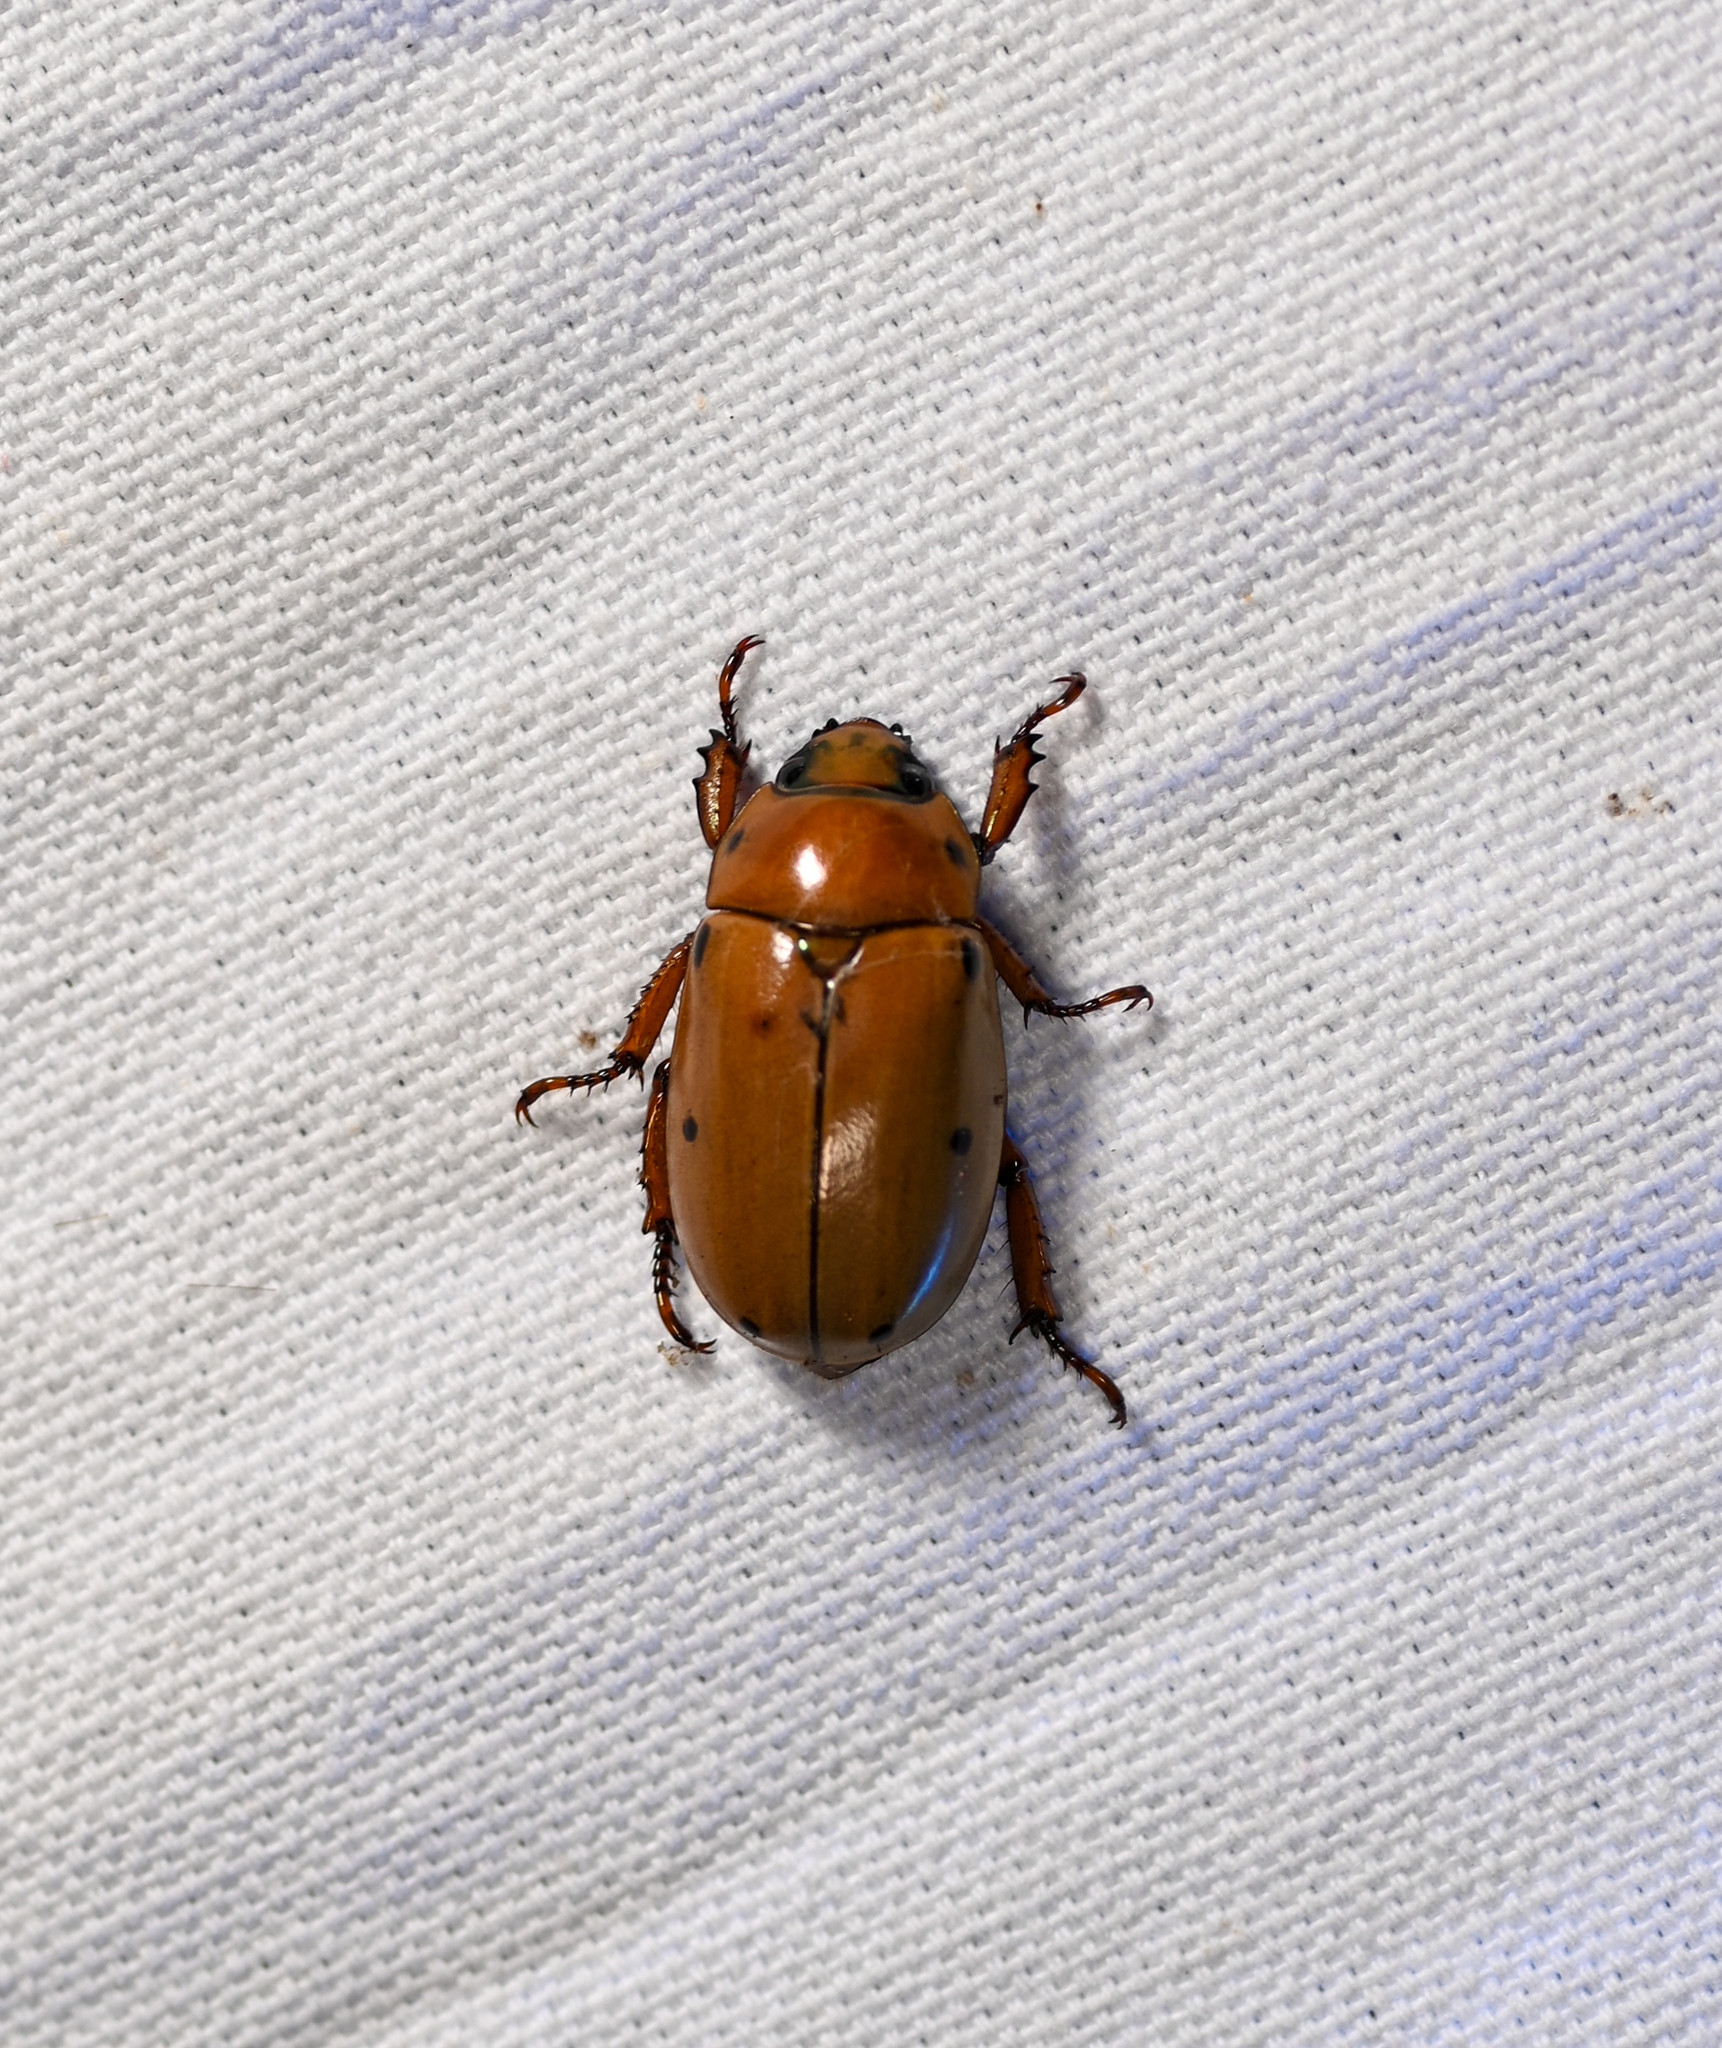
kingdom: Animalia
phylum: Arthropoda
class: Insecta
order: Coleoptera
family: Scarabaeidae
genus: Pelidnota
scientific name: Pelidnota punctata
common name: Grapevine beetle
